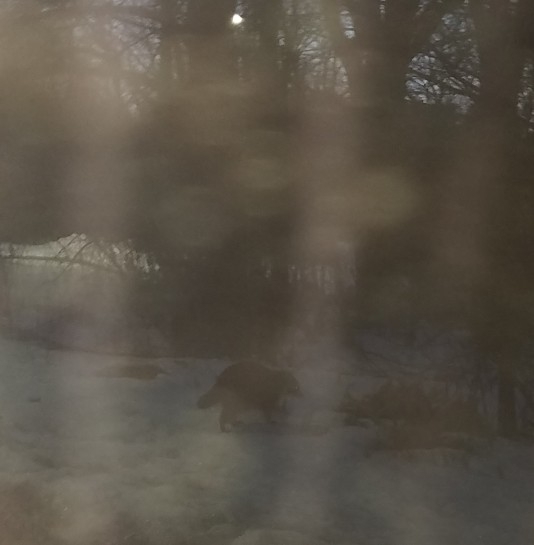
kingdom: Animalia
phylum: Chordata
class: Mammalia
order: Carnivora
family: Procyonidae
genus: Procyon
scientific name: Procyon lotor
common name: Raccoon
